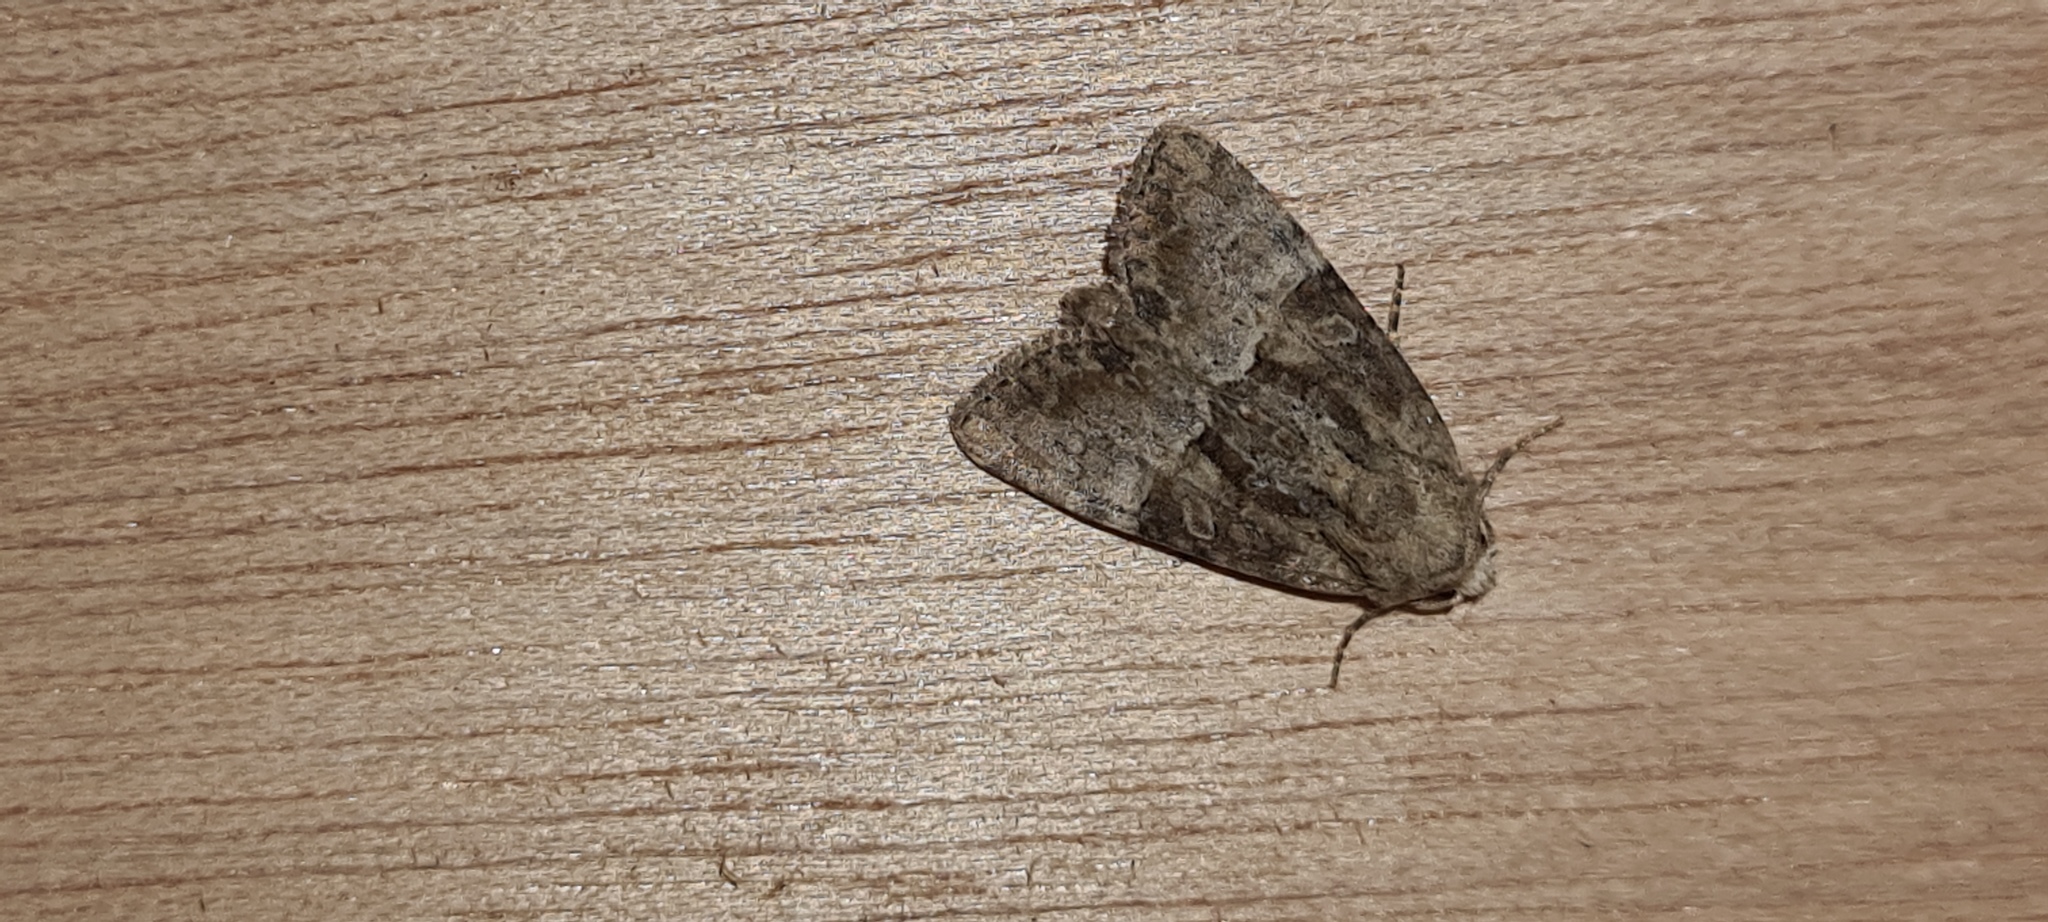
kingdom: Animalia
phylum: Arthropoda
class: Insecta
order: Lepidoptera
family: Noctuidae
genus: Mesoligia
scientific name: Mesoligia furuncula
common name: Cloaked minor
